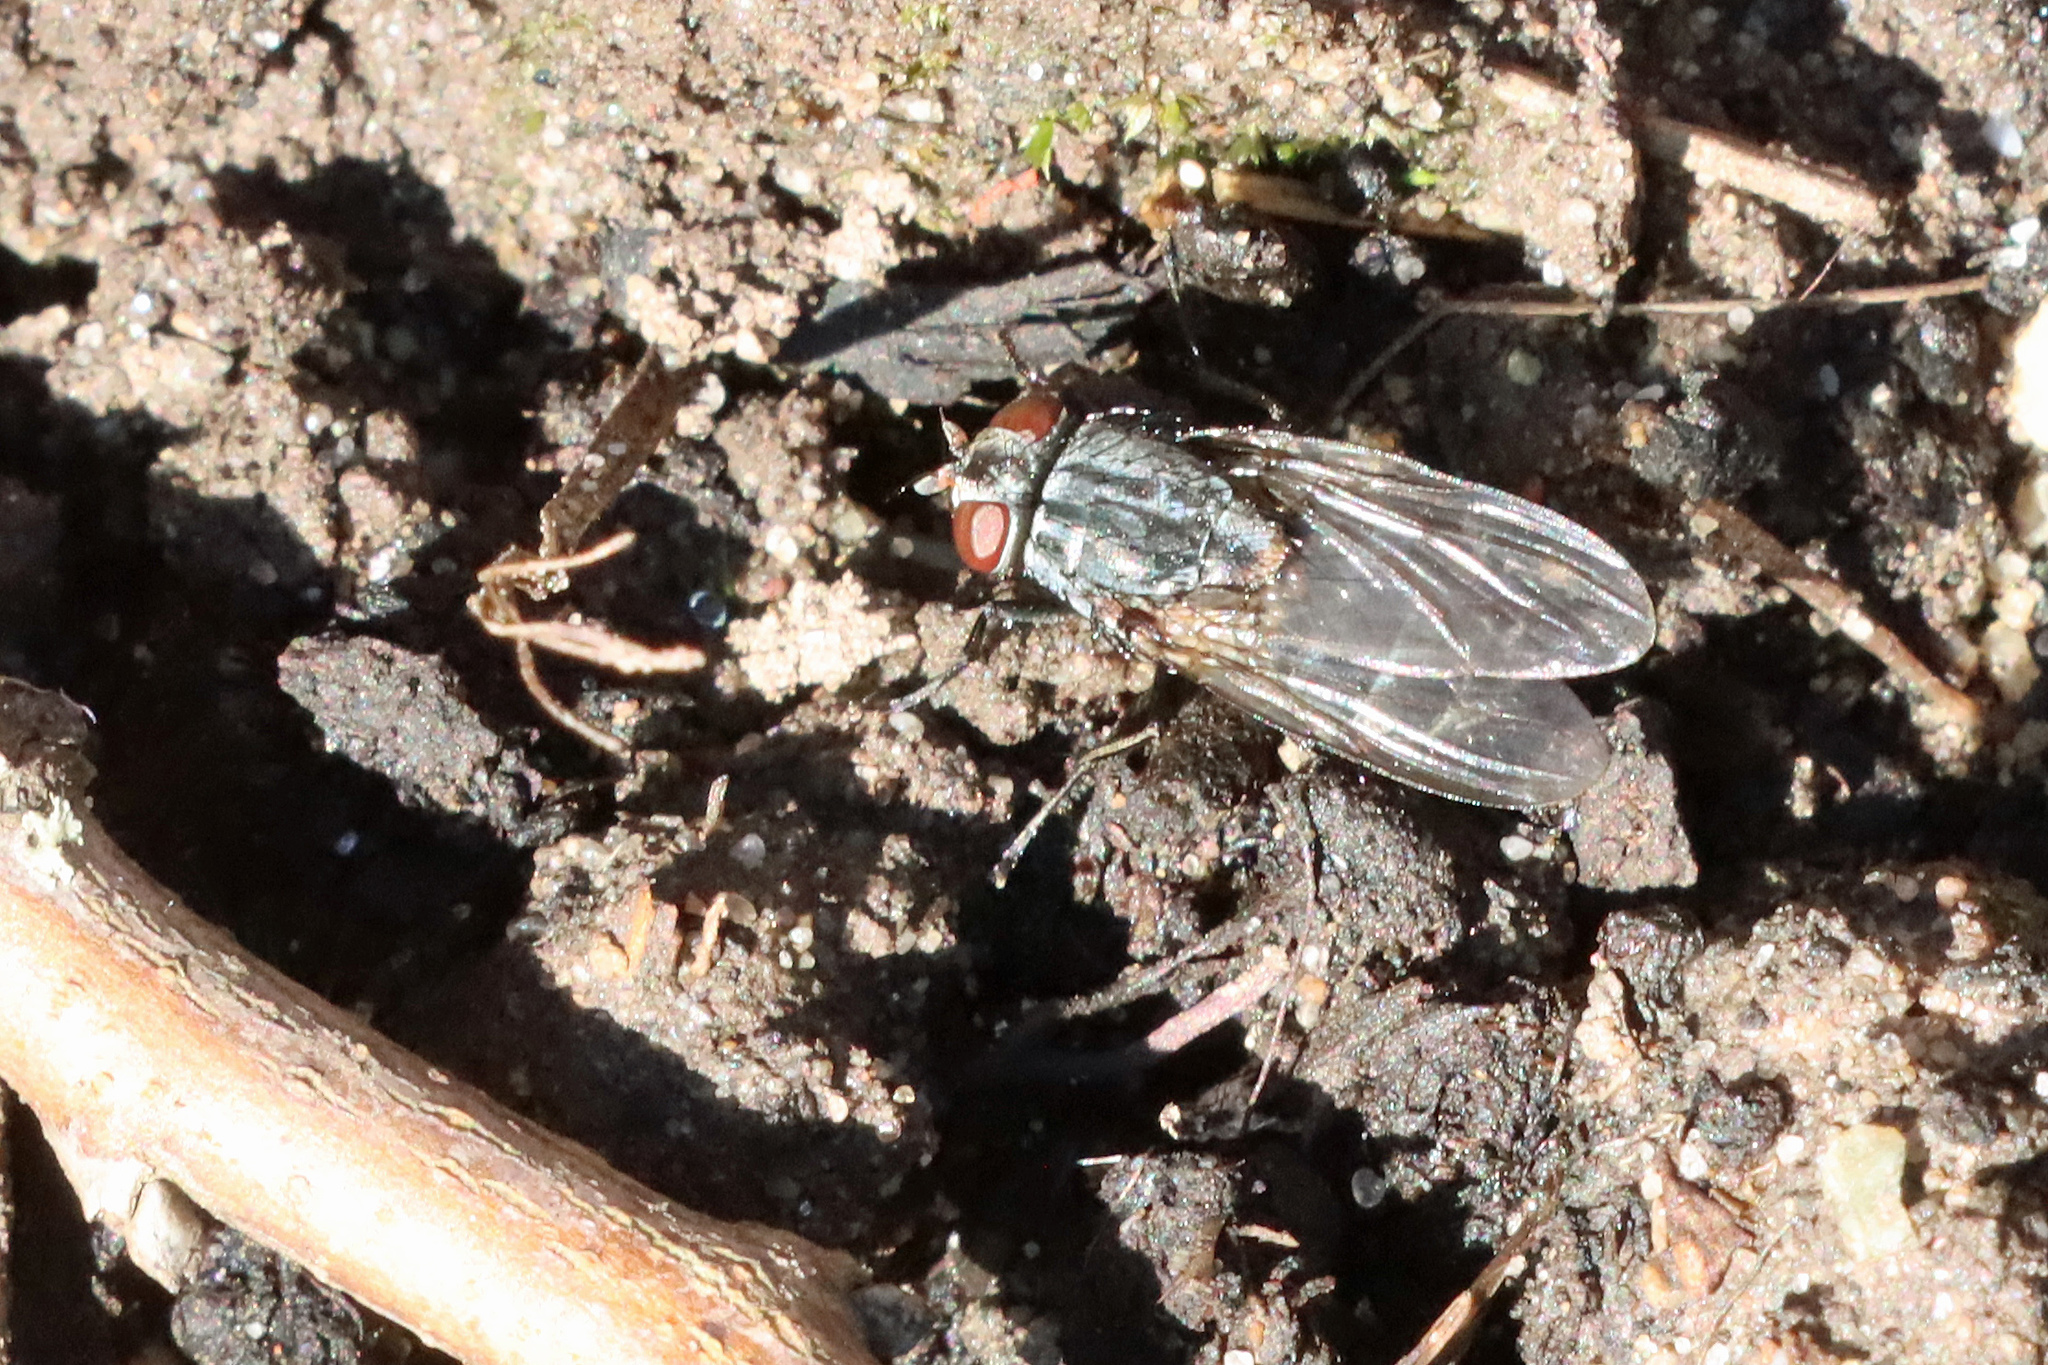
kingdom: Animalia
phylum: Arthropoda
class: Insecta
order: Diptera
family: Muscidae
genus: Muscina
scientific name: Muscina
